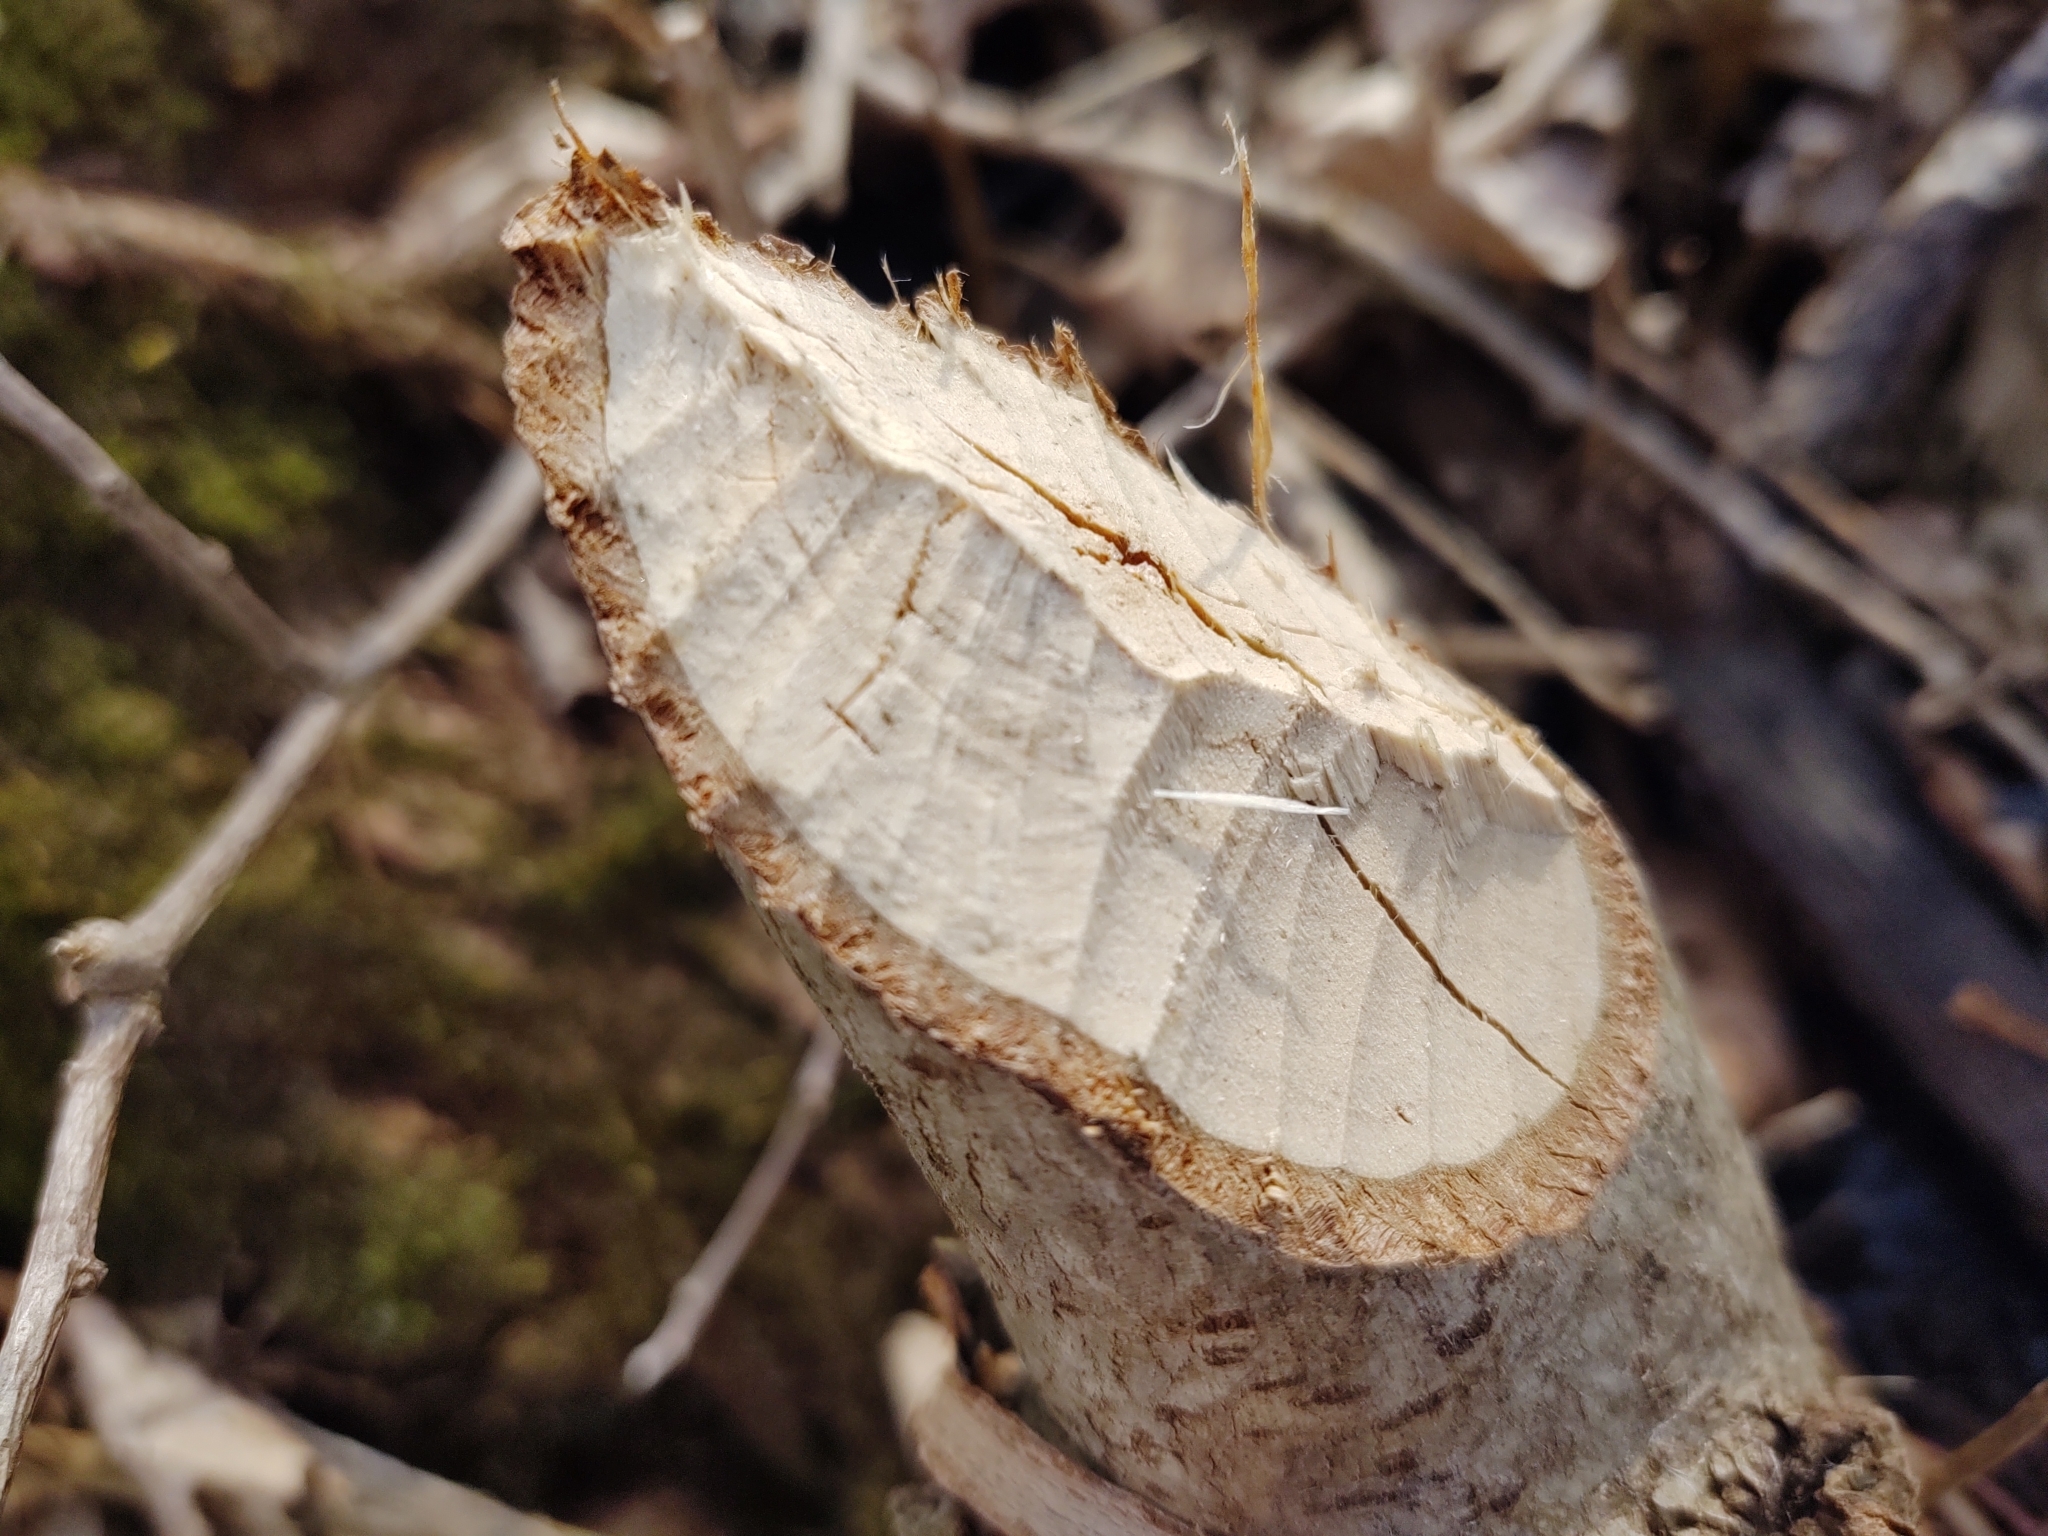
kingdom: Animalia
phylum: Chordata
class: Mammalia
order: Rodentia
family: Castoridae
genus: Castor
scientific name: Castor canadensis
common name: American beaver
